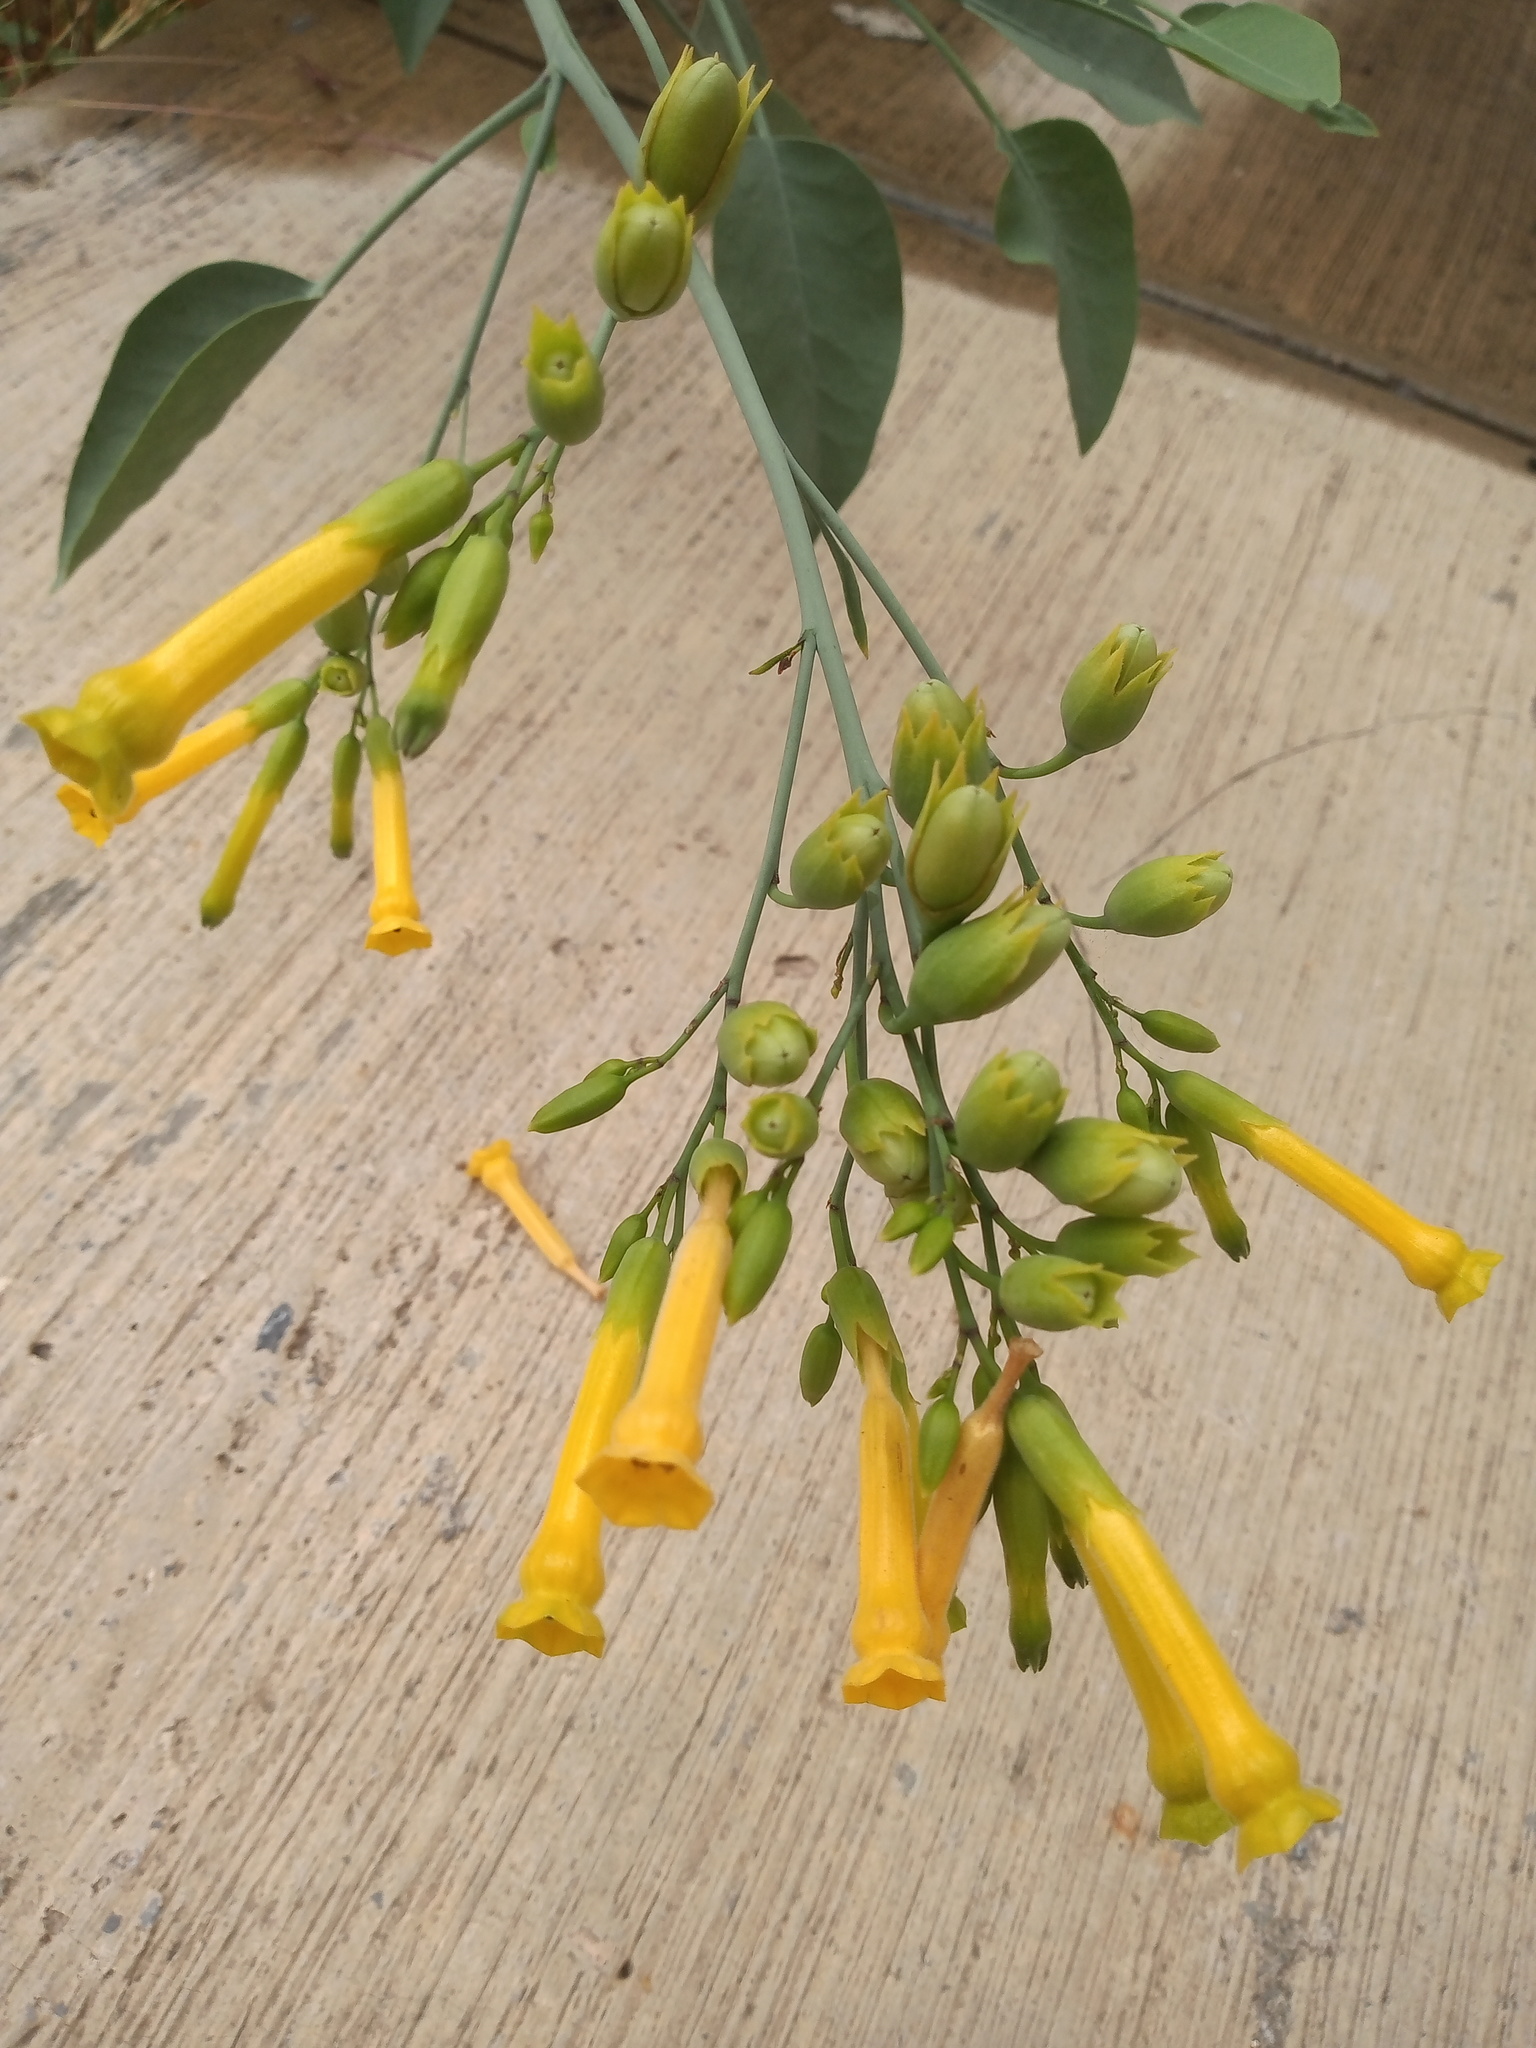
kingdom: Plantae
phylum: Tracheophyta
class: Magnoliopsida
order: Solanales
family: Solanaceae
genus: Nicotiana
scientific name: Nicotiana glauca
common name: Tree tobacco
